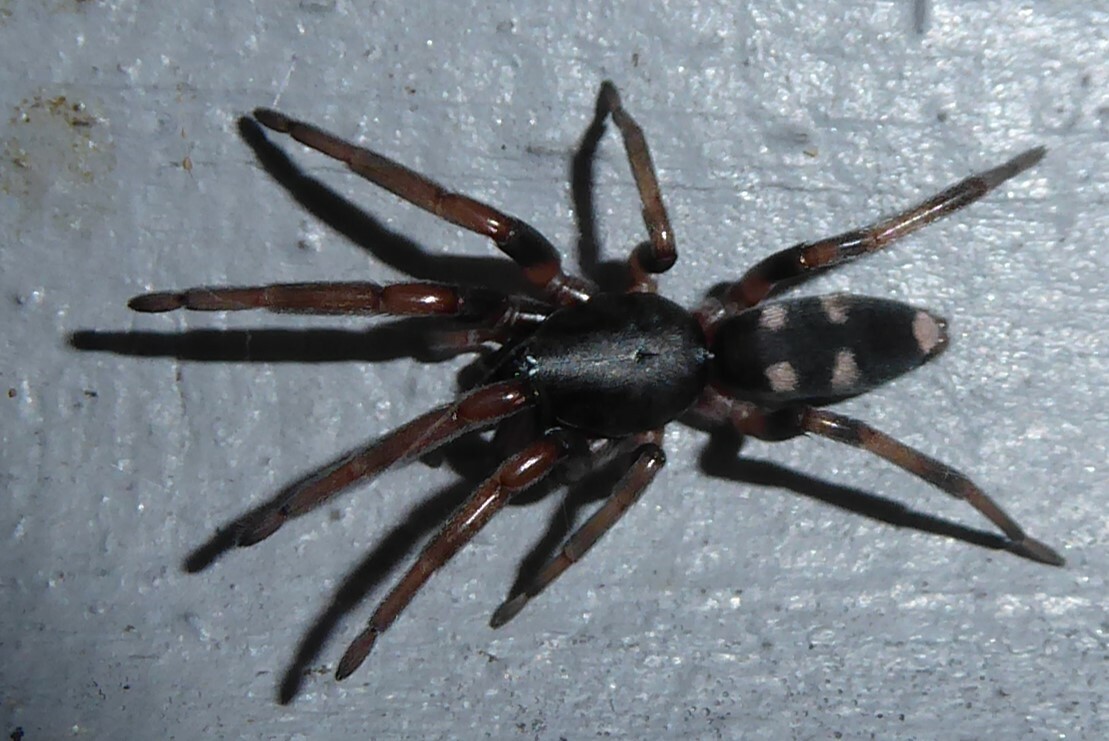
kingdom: Animalia
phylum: Arthropoda
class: Arachnida
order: Araneae
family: Lamponidae
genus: Lampona
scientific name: Lampona cylindrata
